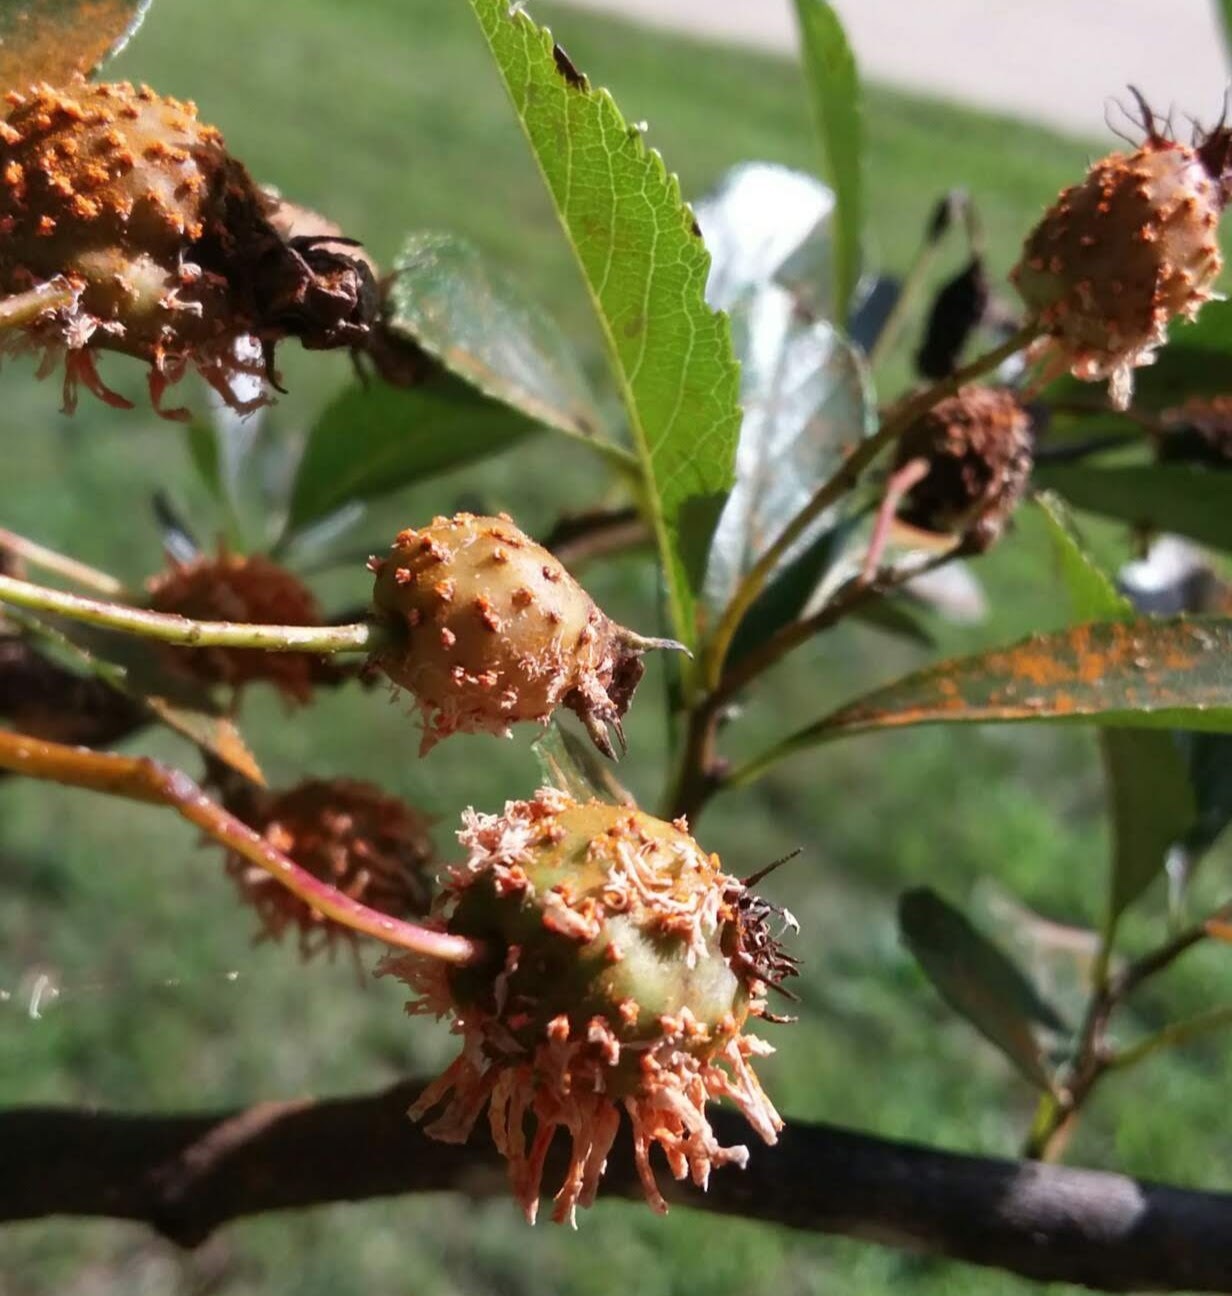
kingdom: Fungi
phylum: Basidiomycota
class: Pucciniomycetes
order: Pucciniales
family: Gymnosporangiaceae
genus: Gymnosporangium
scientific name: Gymnosporangium clavipes
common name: Quince rust
